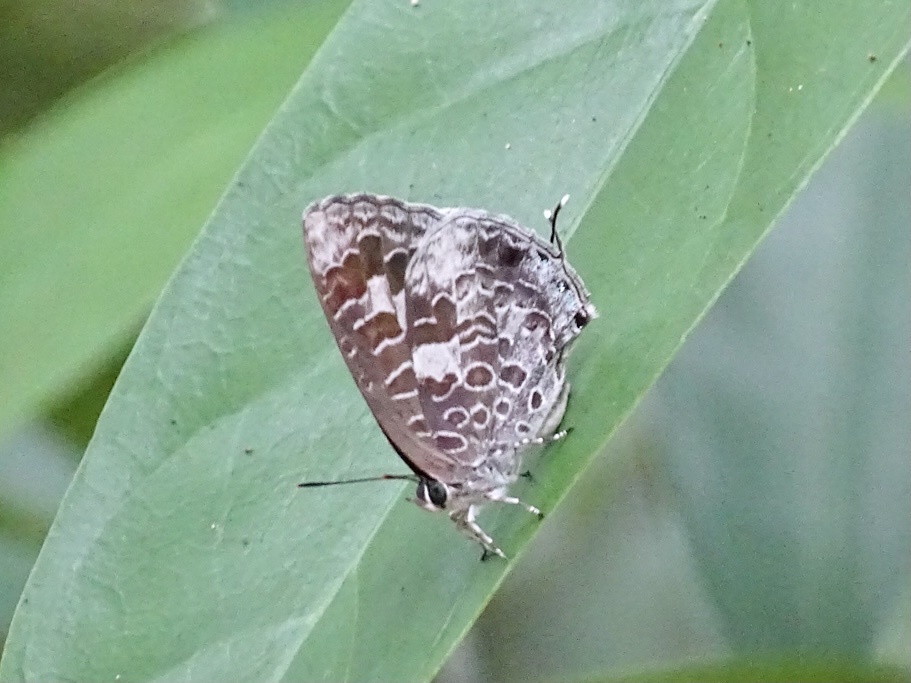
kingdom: Animalia
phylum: Arthropoda
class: Insecta
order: Lepidoptera
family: Lycaenidae
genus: Arhopala
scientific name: Arhopala birmana
